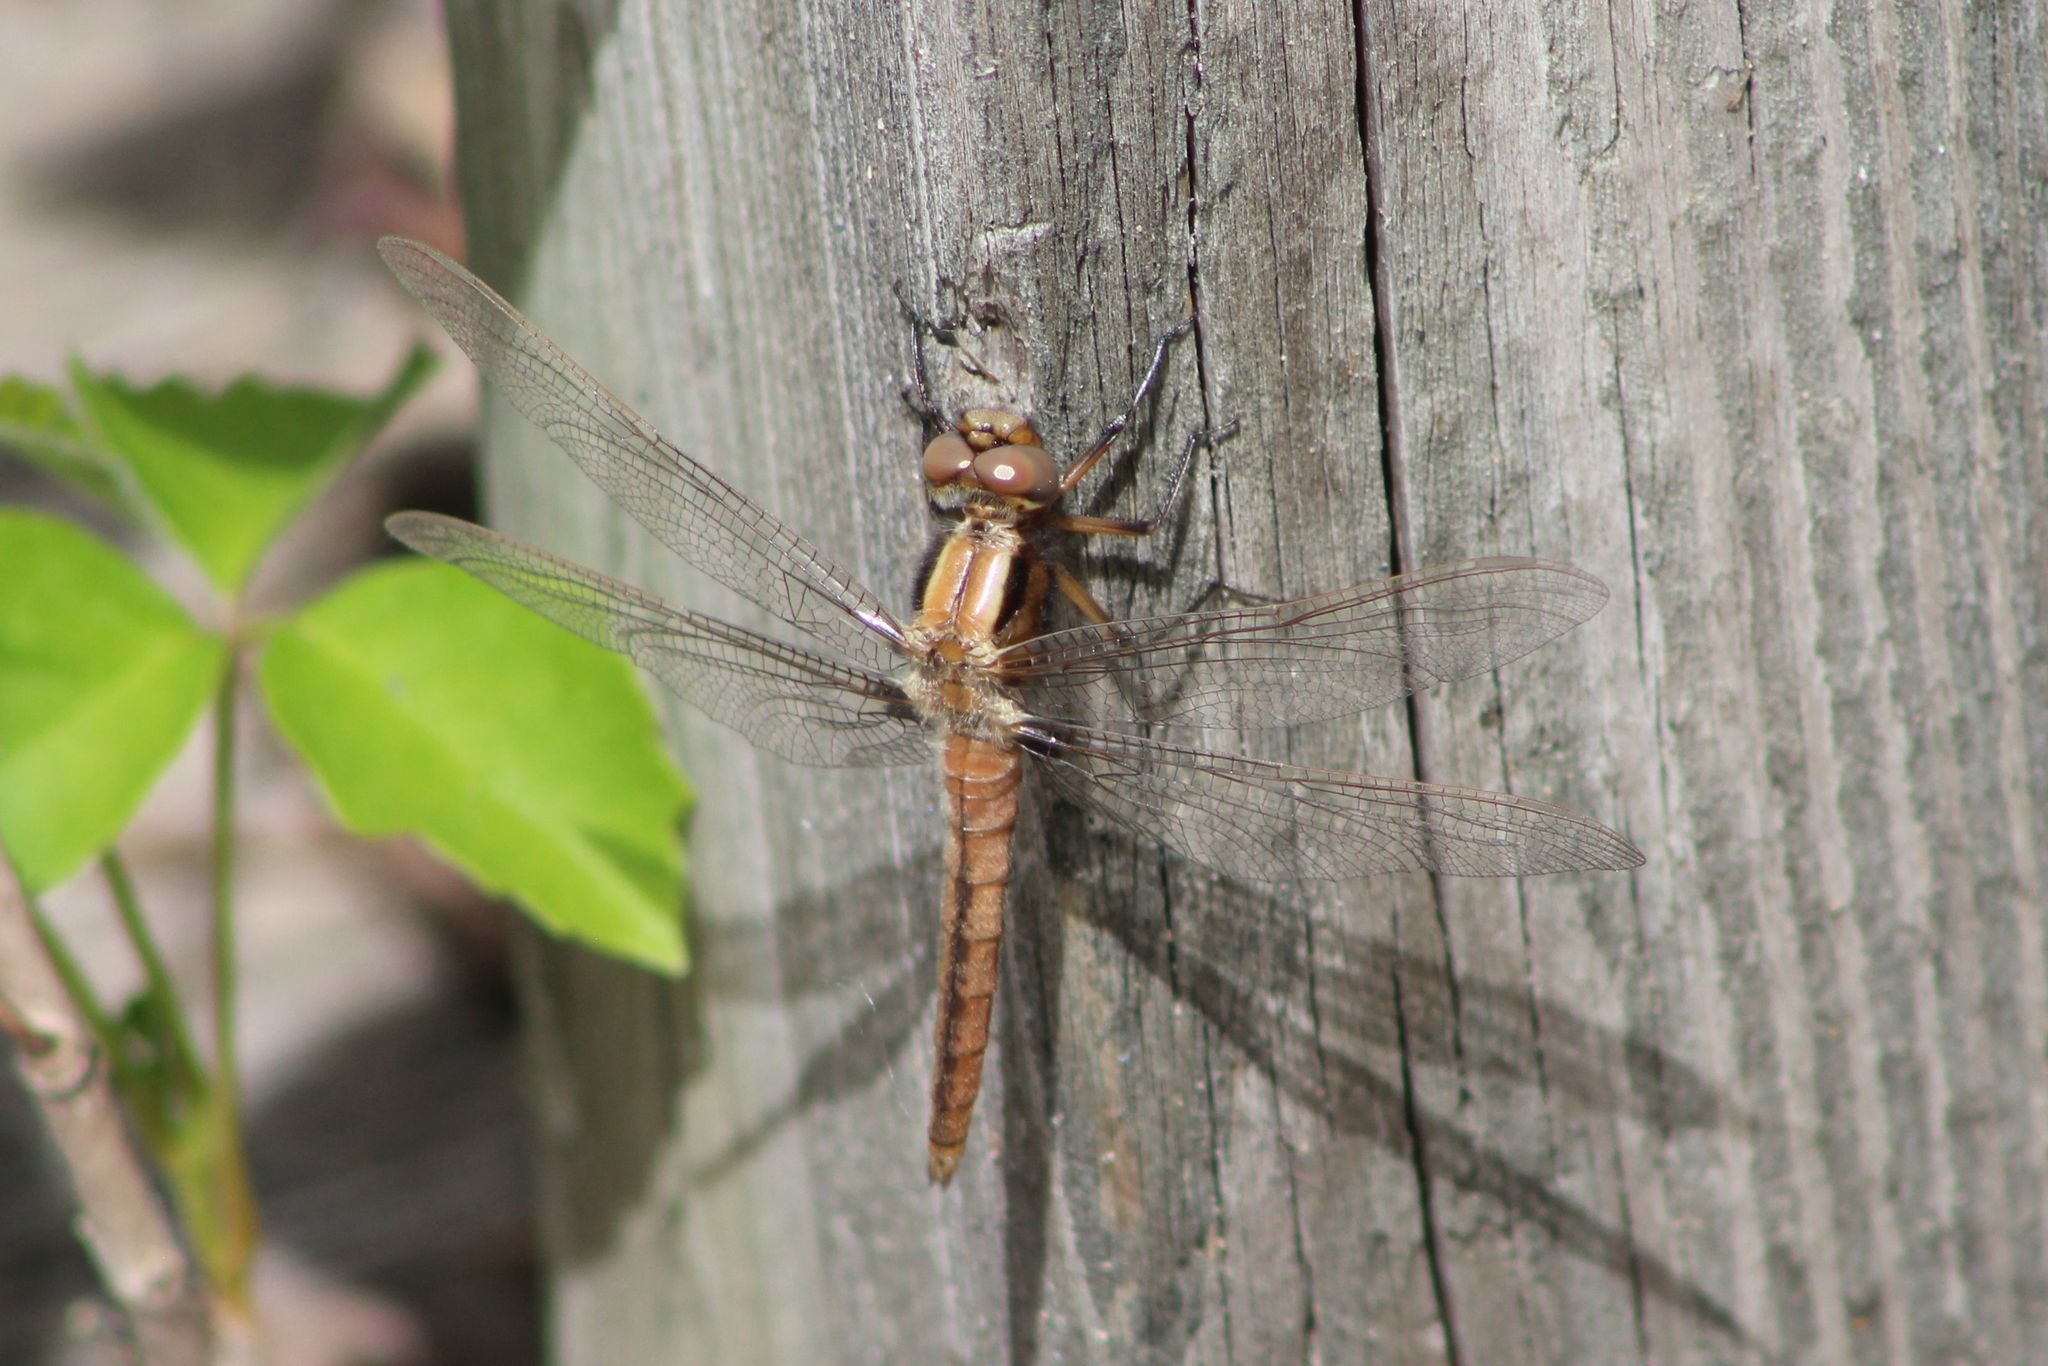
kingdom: Animalia
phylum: Arthropoda
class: Insecta
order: Odonata
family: Libellulidae
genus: Ladona
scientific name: Ladona julia
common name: Chalk-fronted corporal
